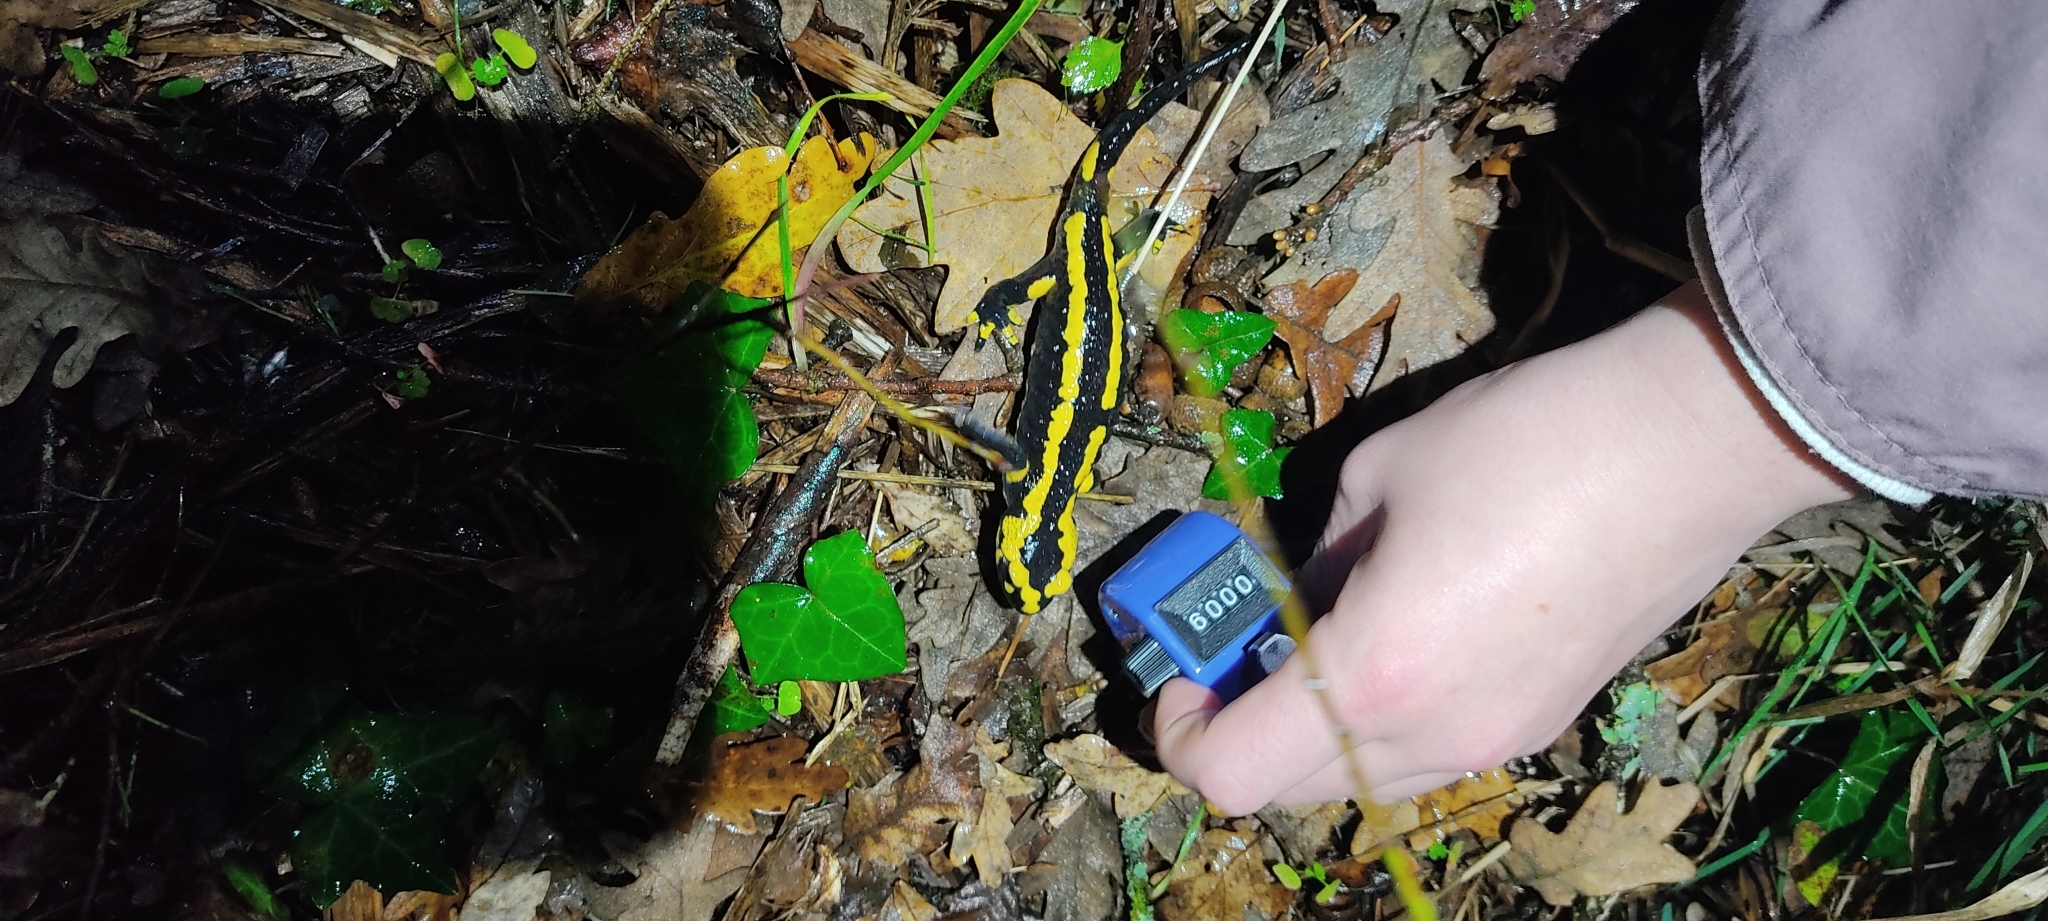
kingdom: Animalia
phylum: Chordata
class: Amphibia
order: Caudata
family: Salamandridae
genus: Salamandra
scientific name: Salamandra salamandra
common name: Fire salamander
